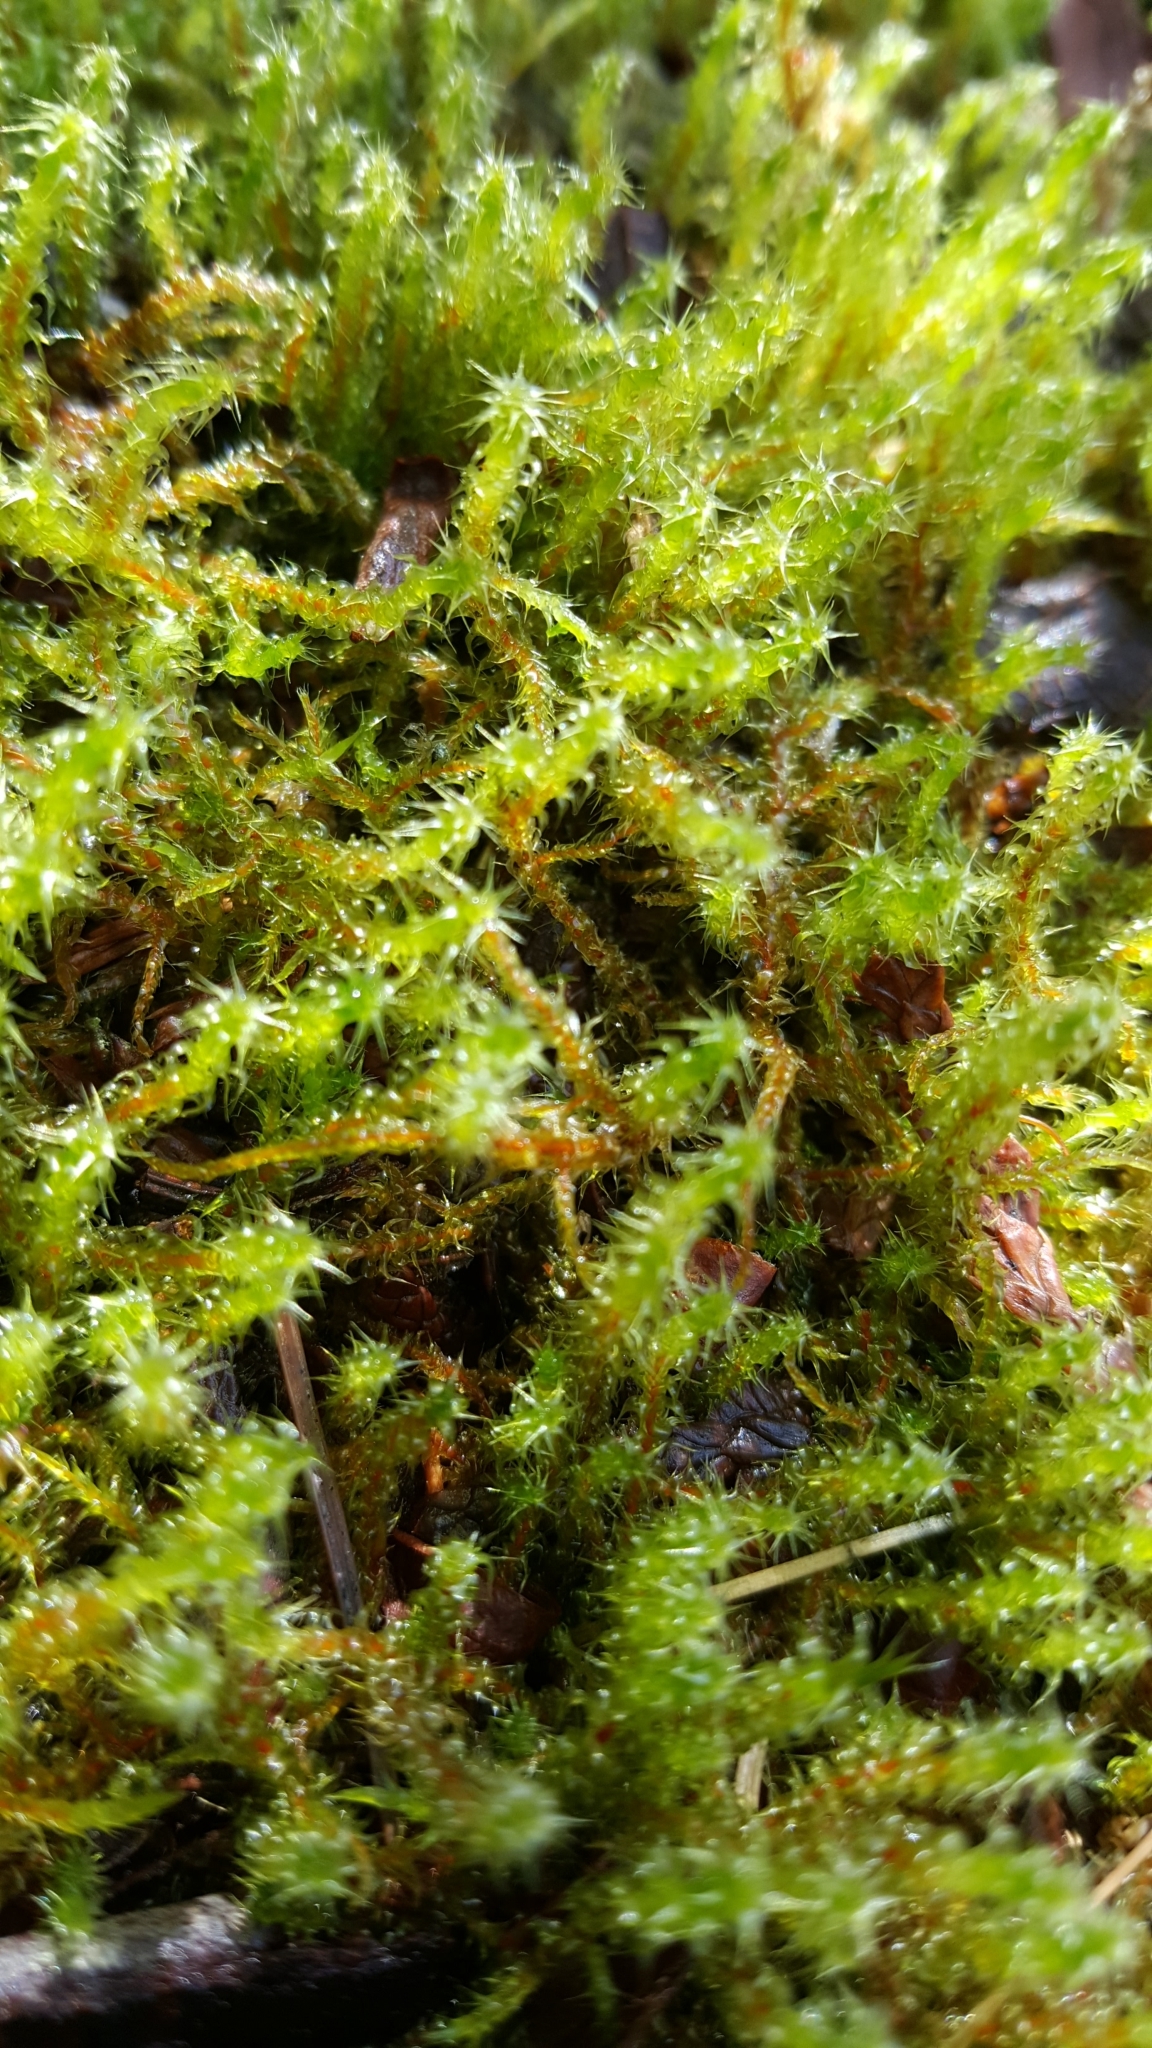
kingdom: Plantae
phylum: Bryophyta
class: Bryopsida
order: Hypnales
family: Hylocomiaceae
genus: Rhytidiadelphus
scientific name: Rhytidiadelphus squarrosus
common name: Springy turf-moss
